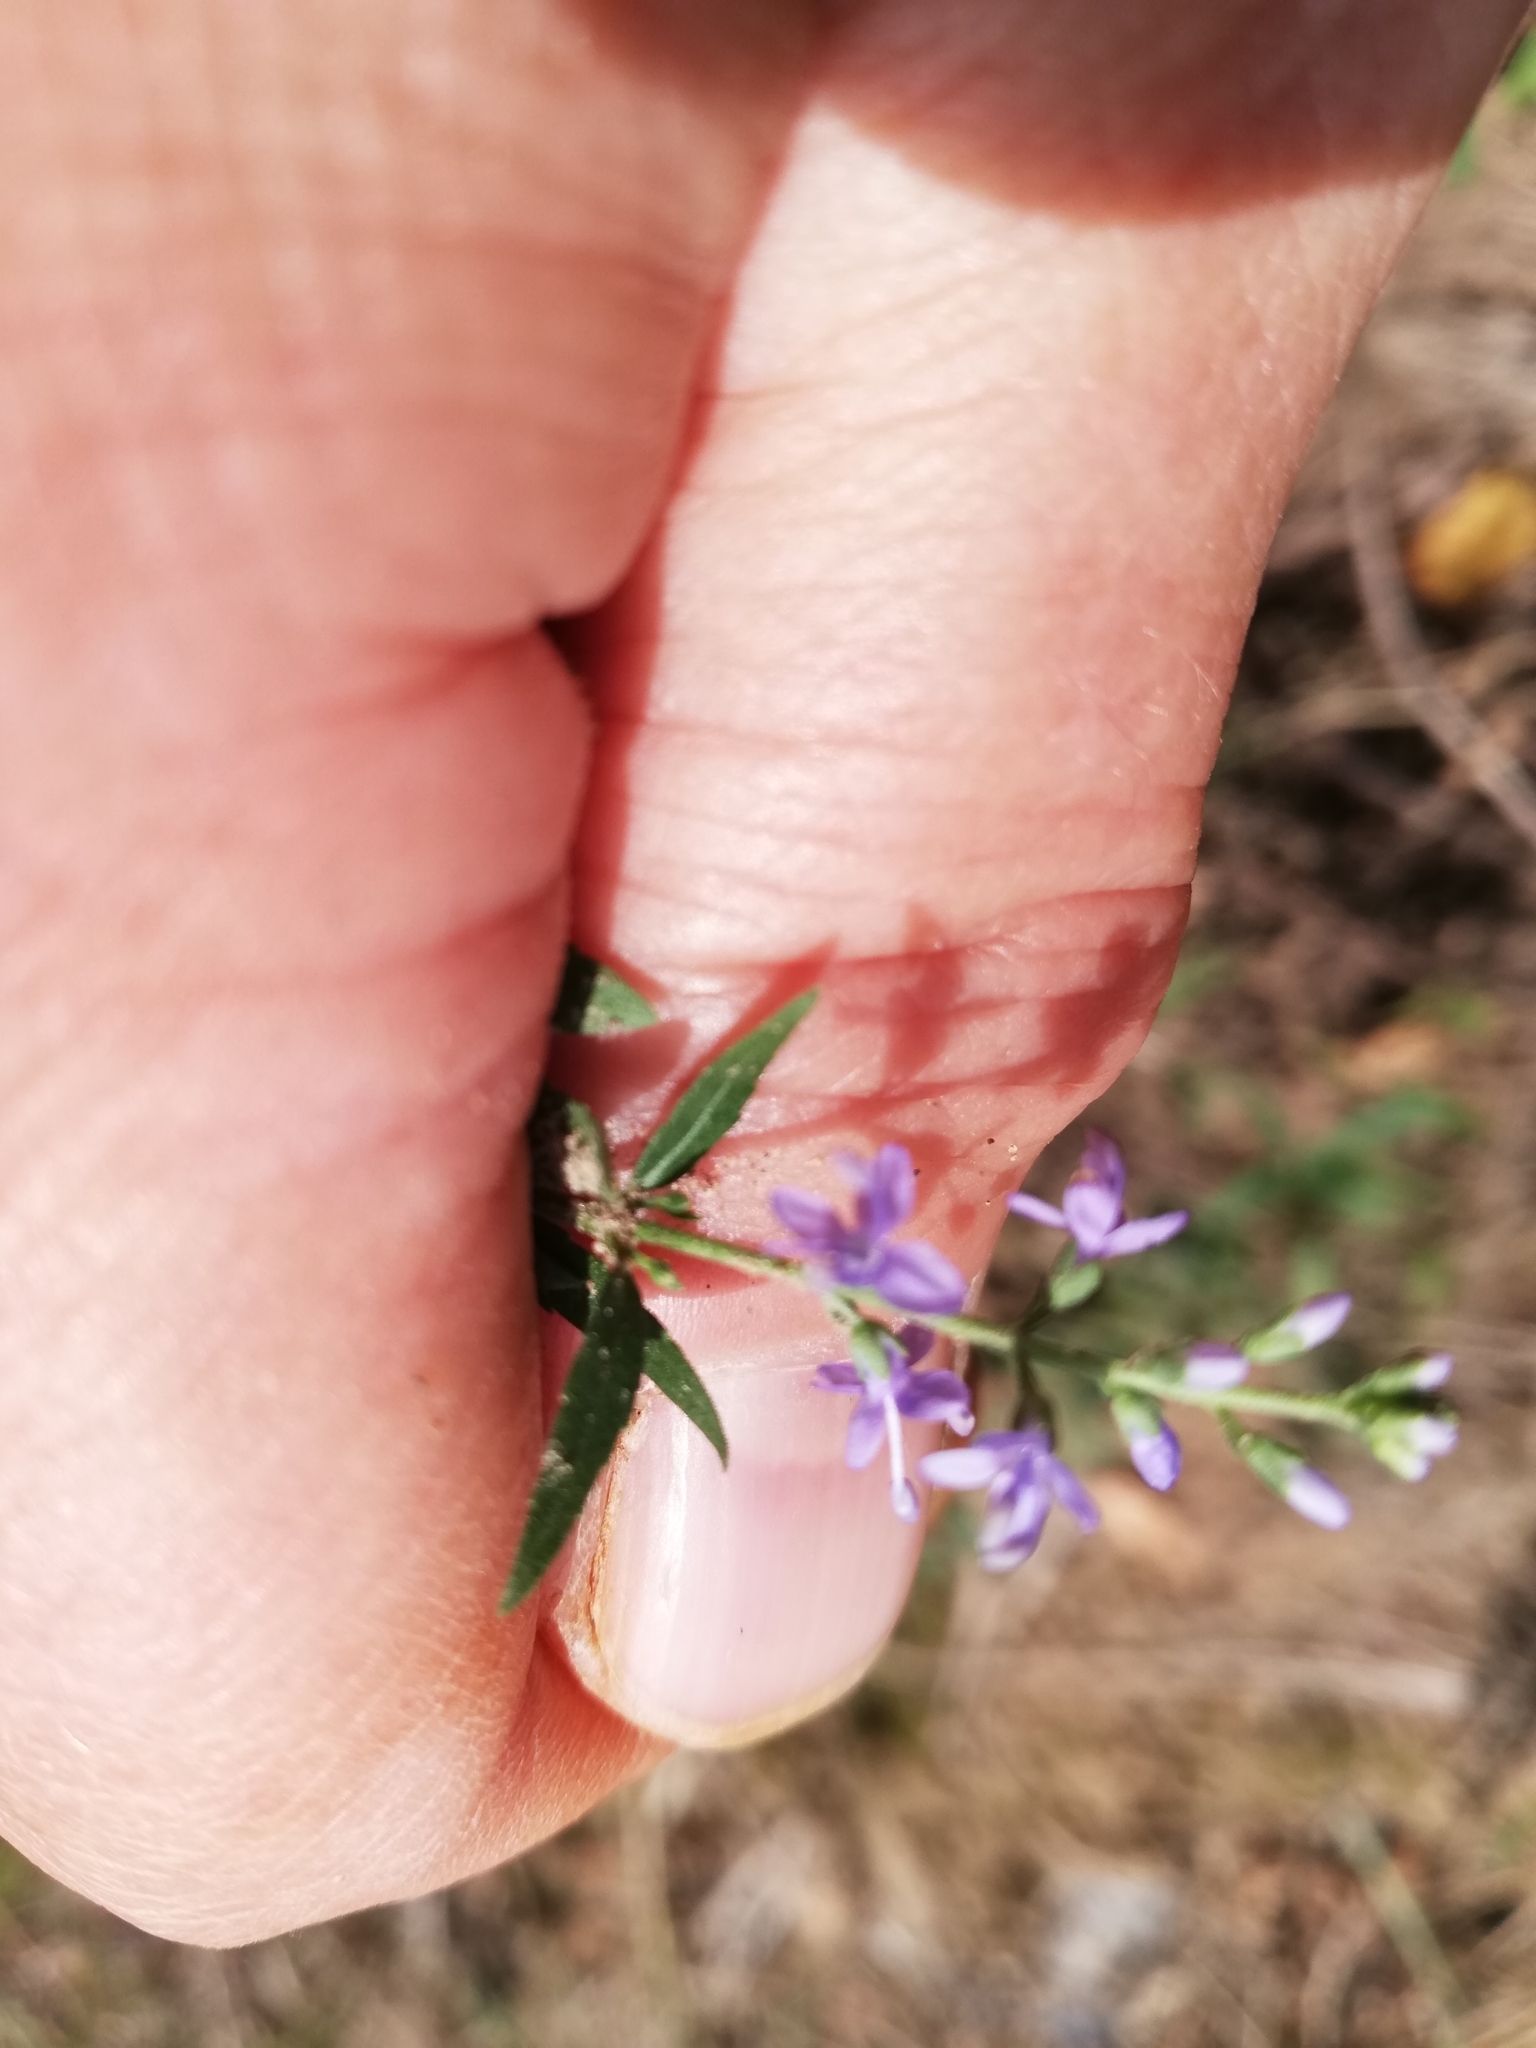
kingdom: Plantae
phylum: Tracheophyta
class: Magnoliopsida
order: Lamiales
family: Plantaginaceae
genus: Veronica
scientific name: Veronica longifolia
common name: Garden speedwell
